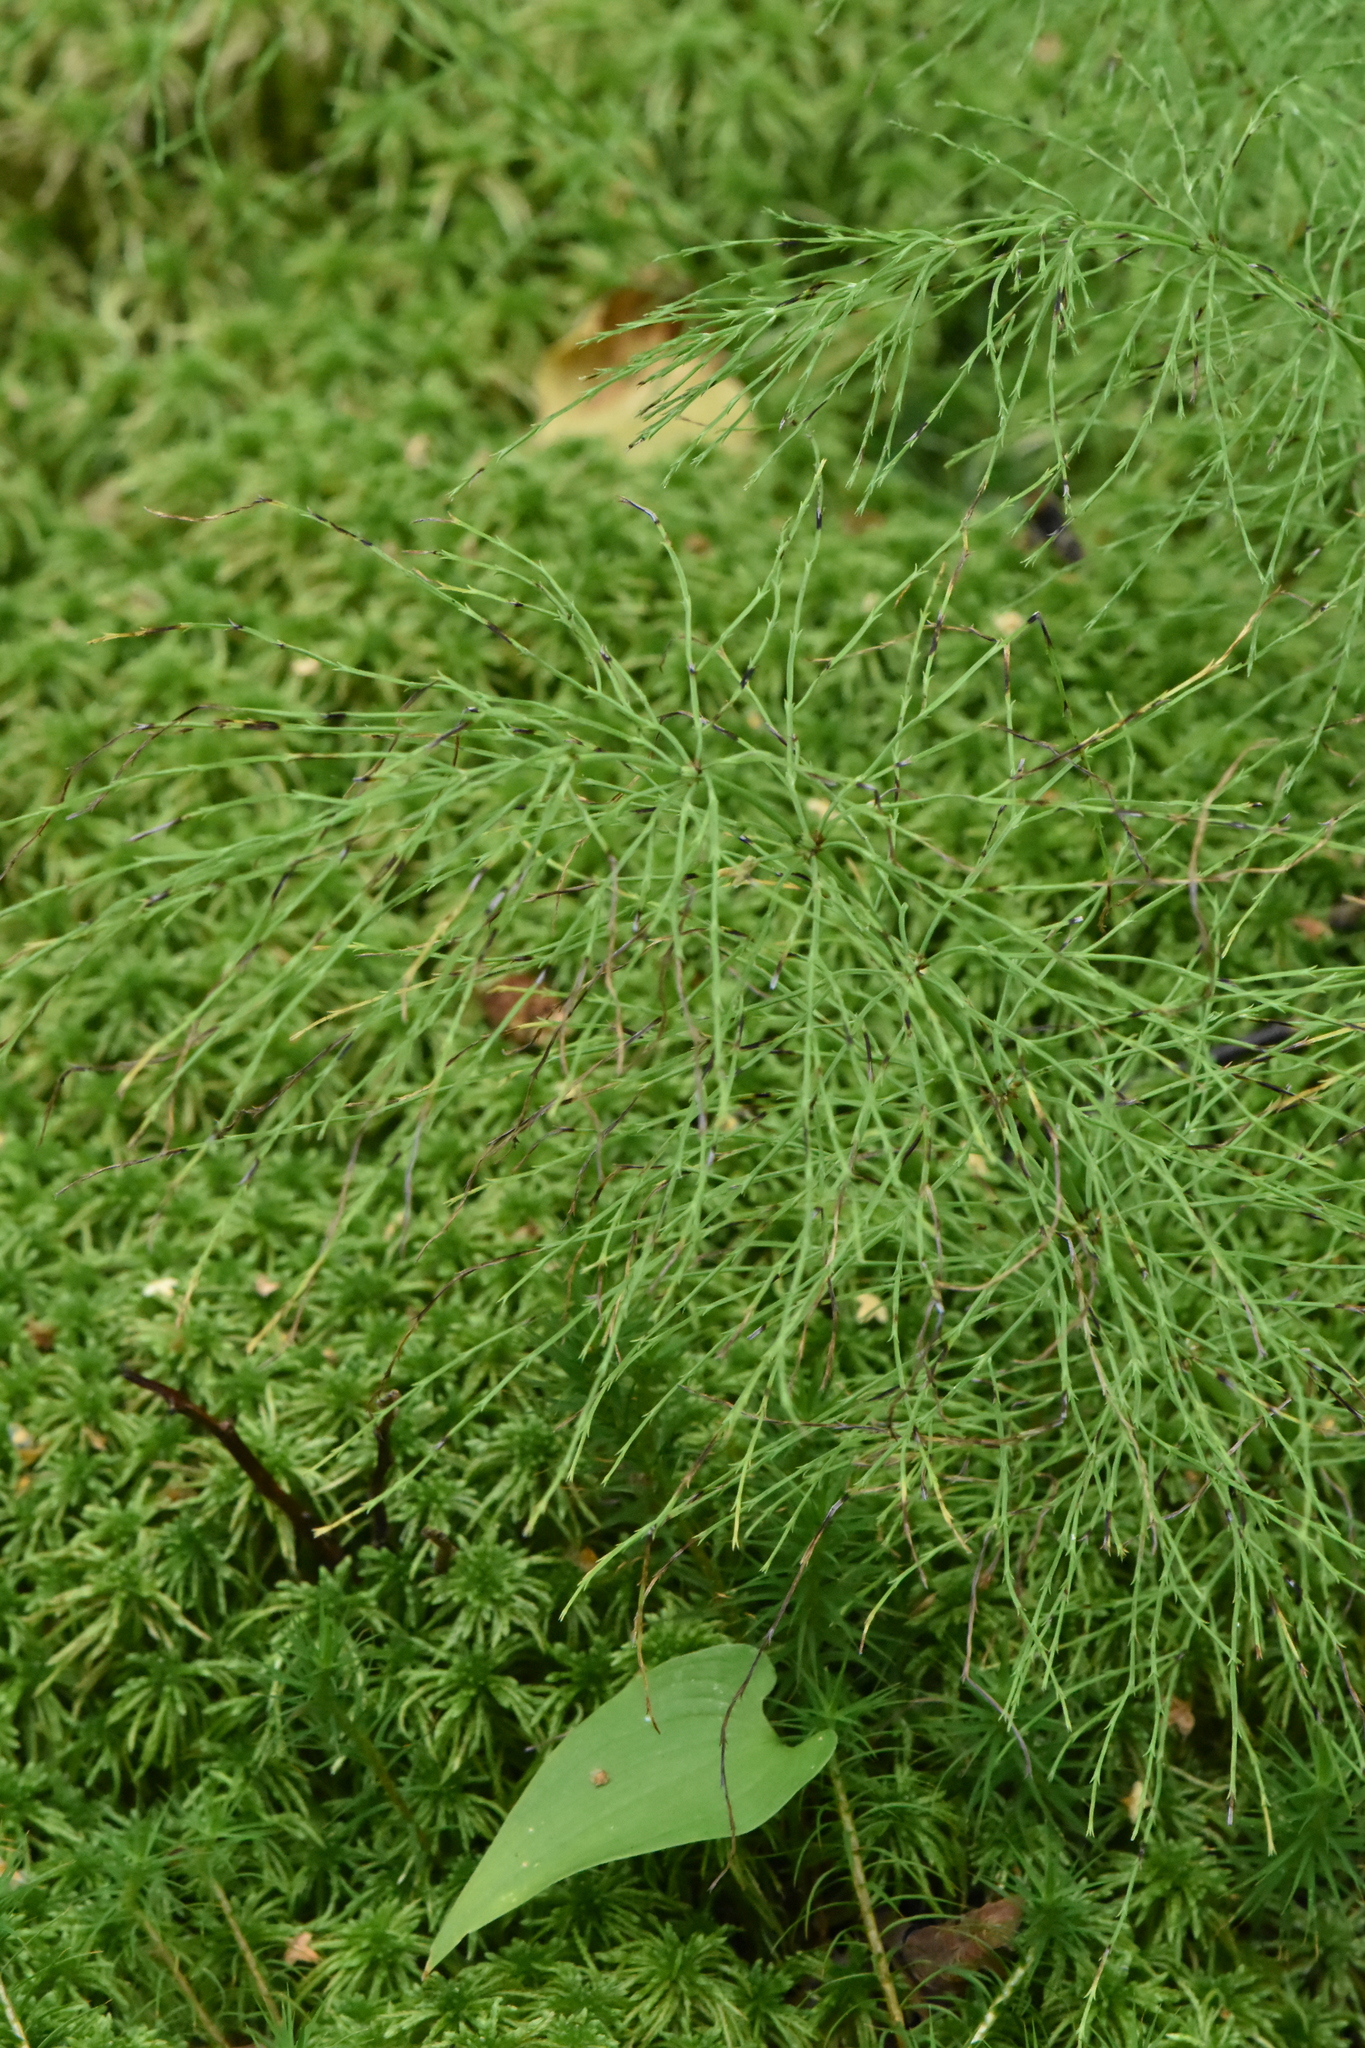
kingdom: Plantae
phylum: Tracheophyta
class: Polypodiopsida
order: Equisetales
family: Equisetaceae
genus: Equisetum
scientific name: Equisetum sylvaticum
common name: Wood horsetail
